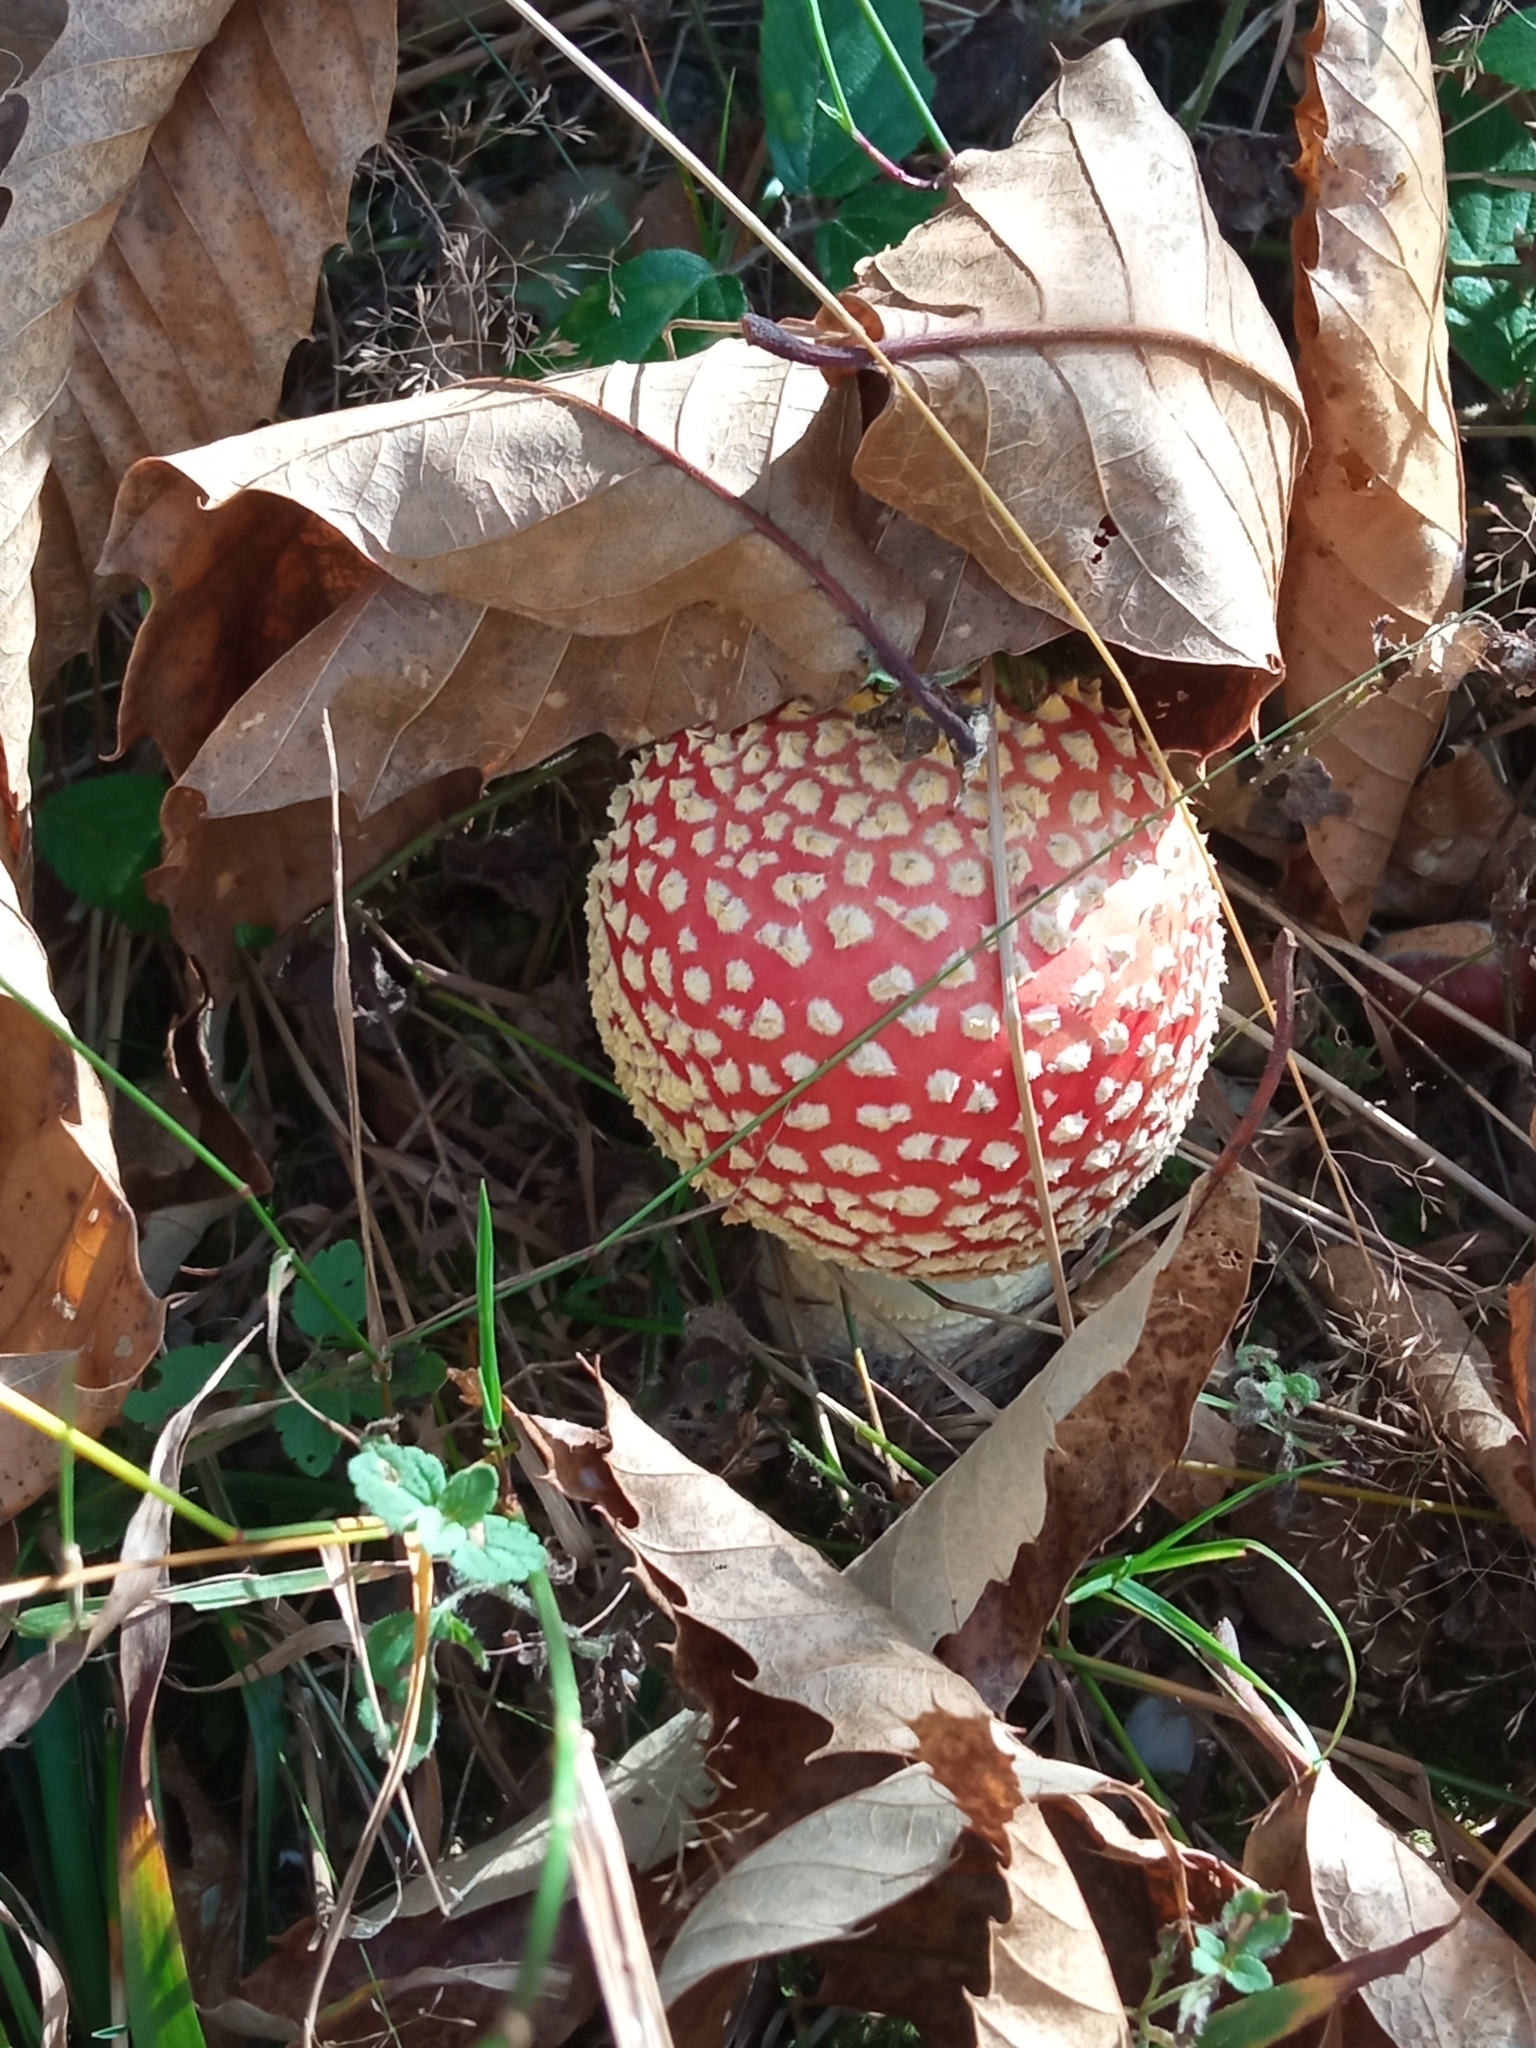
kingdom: Fungi
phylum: Basidiomycota
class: Agaricomycetes
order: Agaricales
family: Amanitaceae
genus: Amanita
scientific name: Amanita muscaria
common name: Fly agaric
